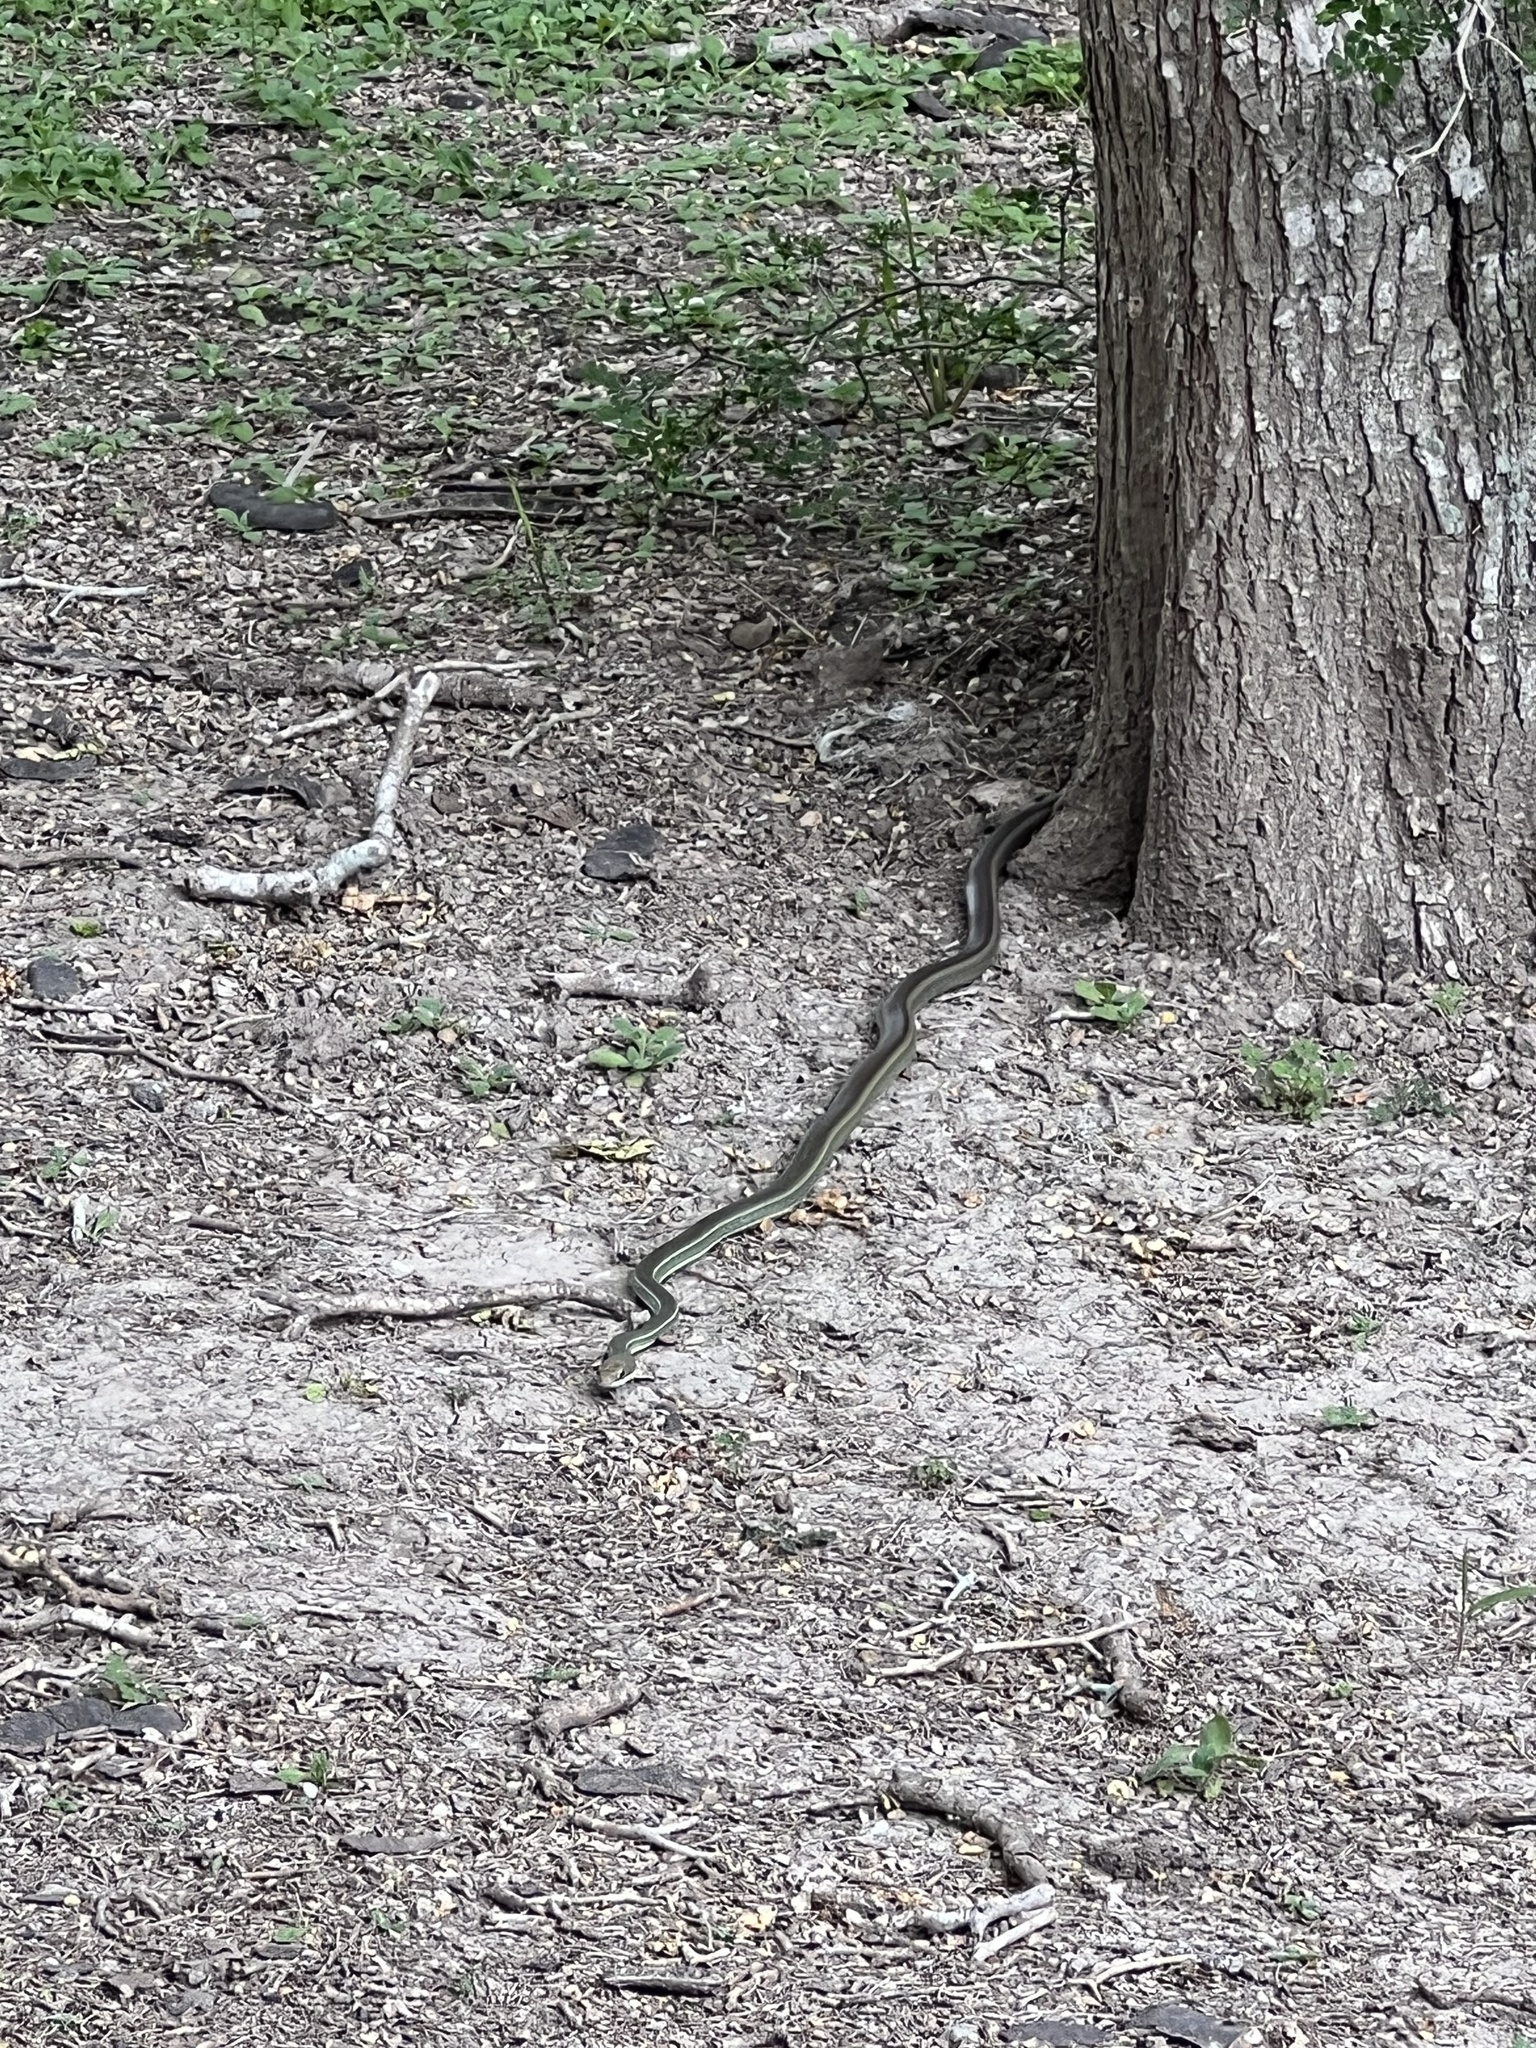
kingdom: Animalia
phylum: Chordata
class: Squamata
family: Colubridae
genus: Masticophis
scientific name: Masticophis schotti
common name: Schott's whipsnake
